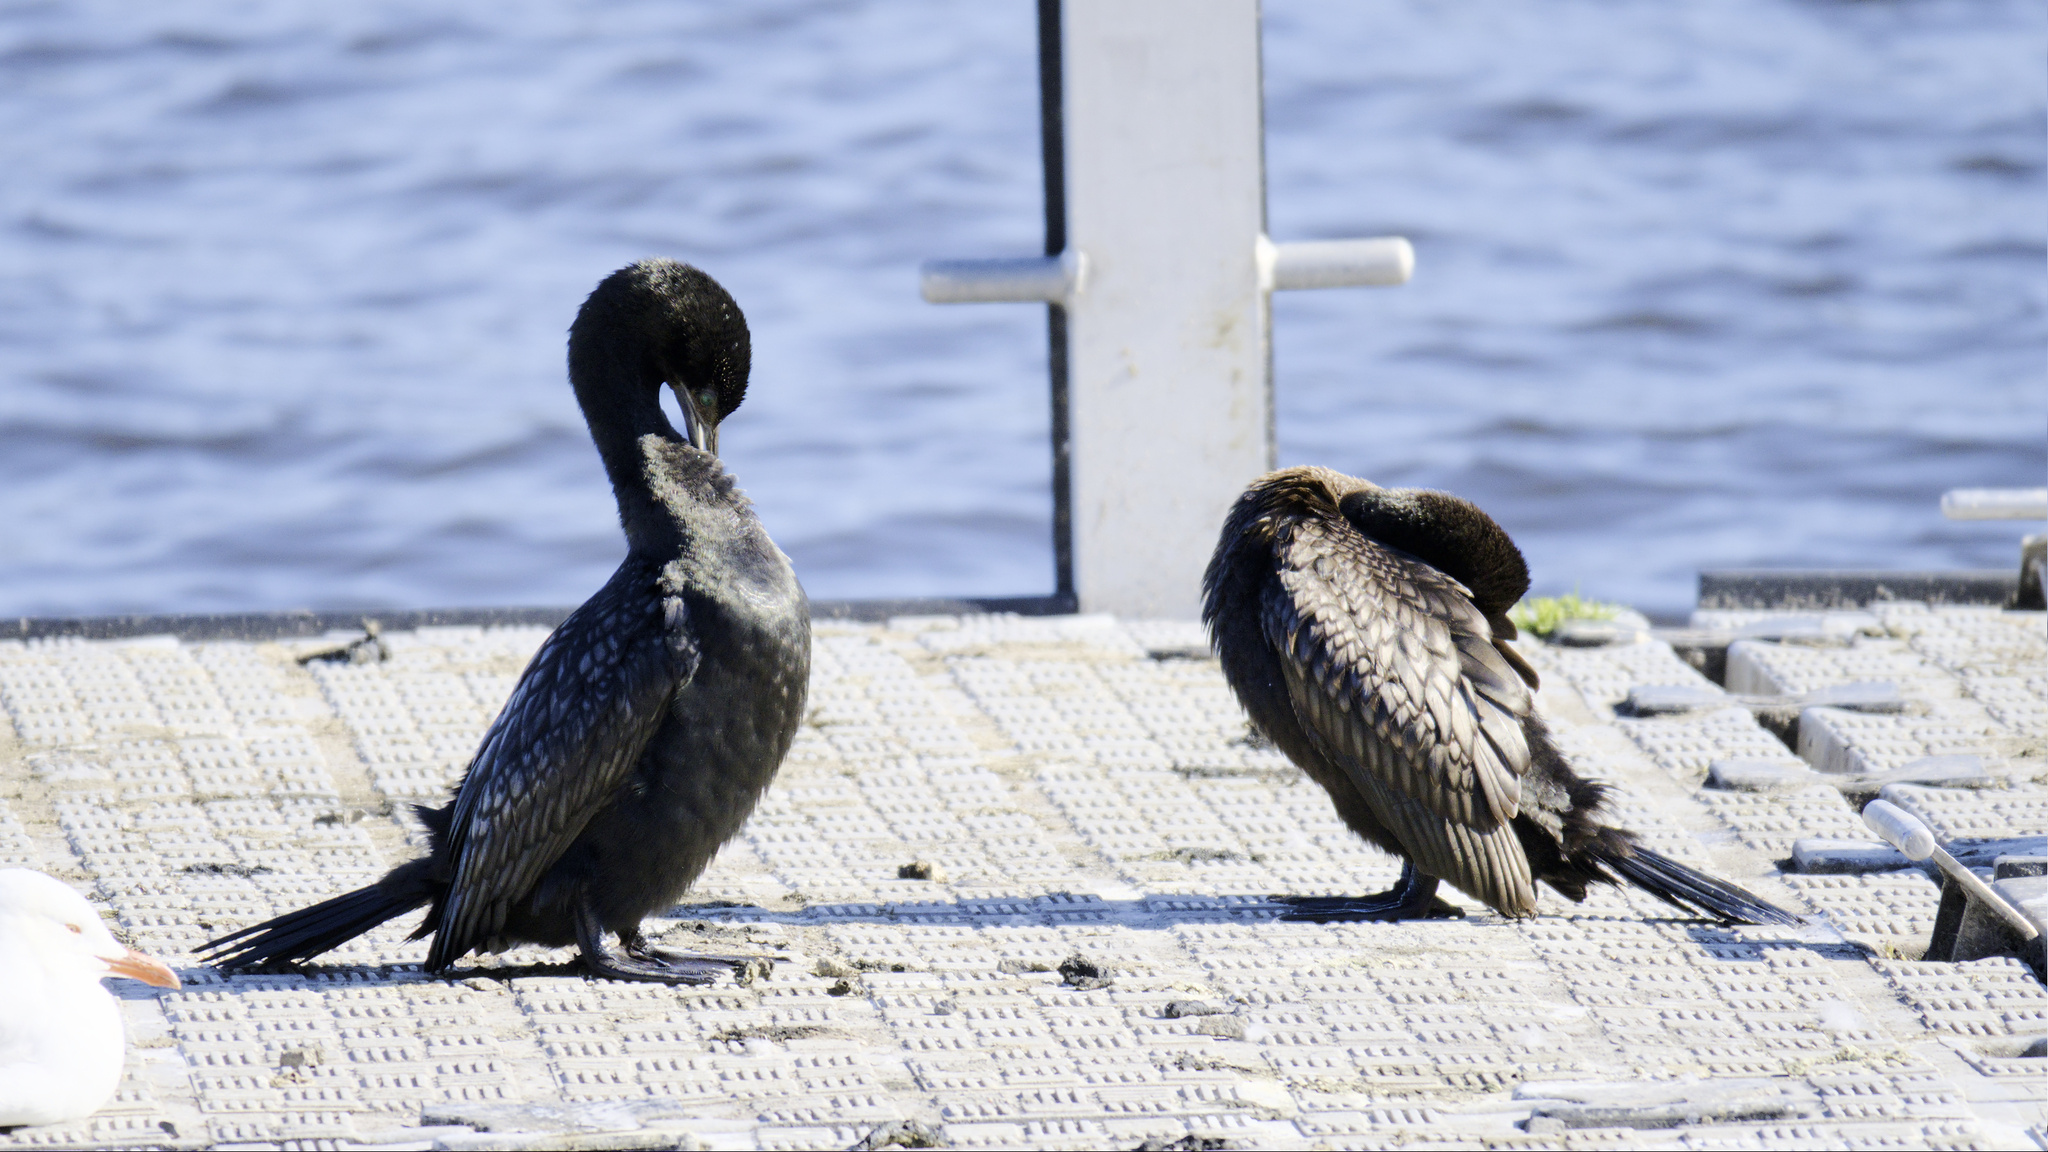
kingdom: Animalia
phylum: Chordata
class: Aves
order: Suliformes
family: Phalacrocoracidae
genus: Phalacrocorax
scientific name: Phalacrocorax sulcirostris
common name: Little black cormorant
